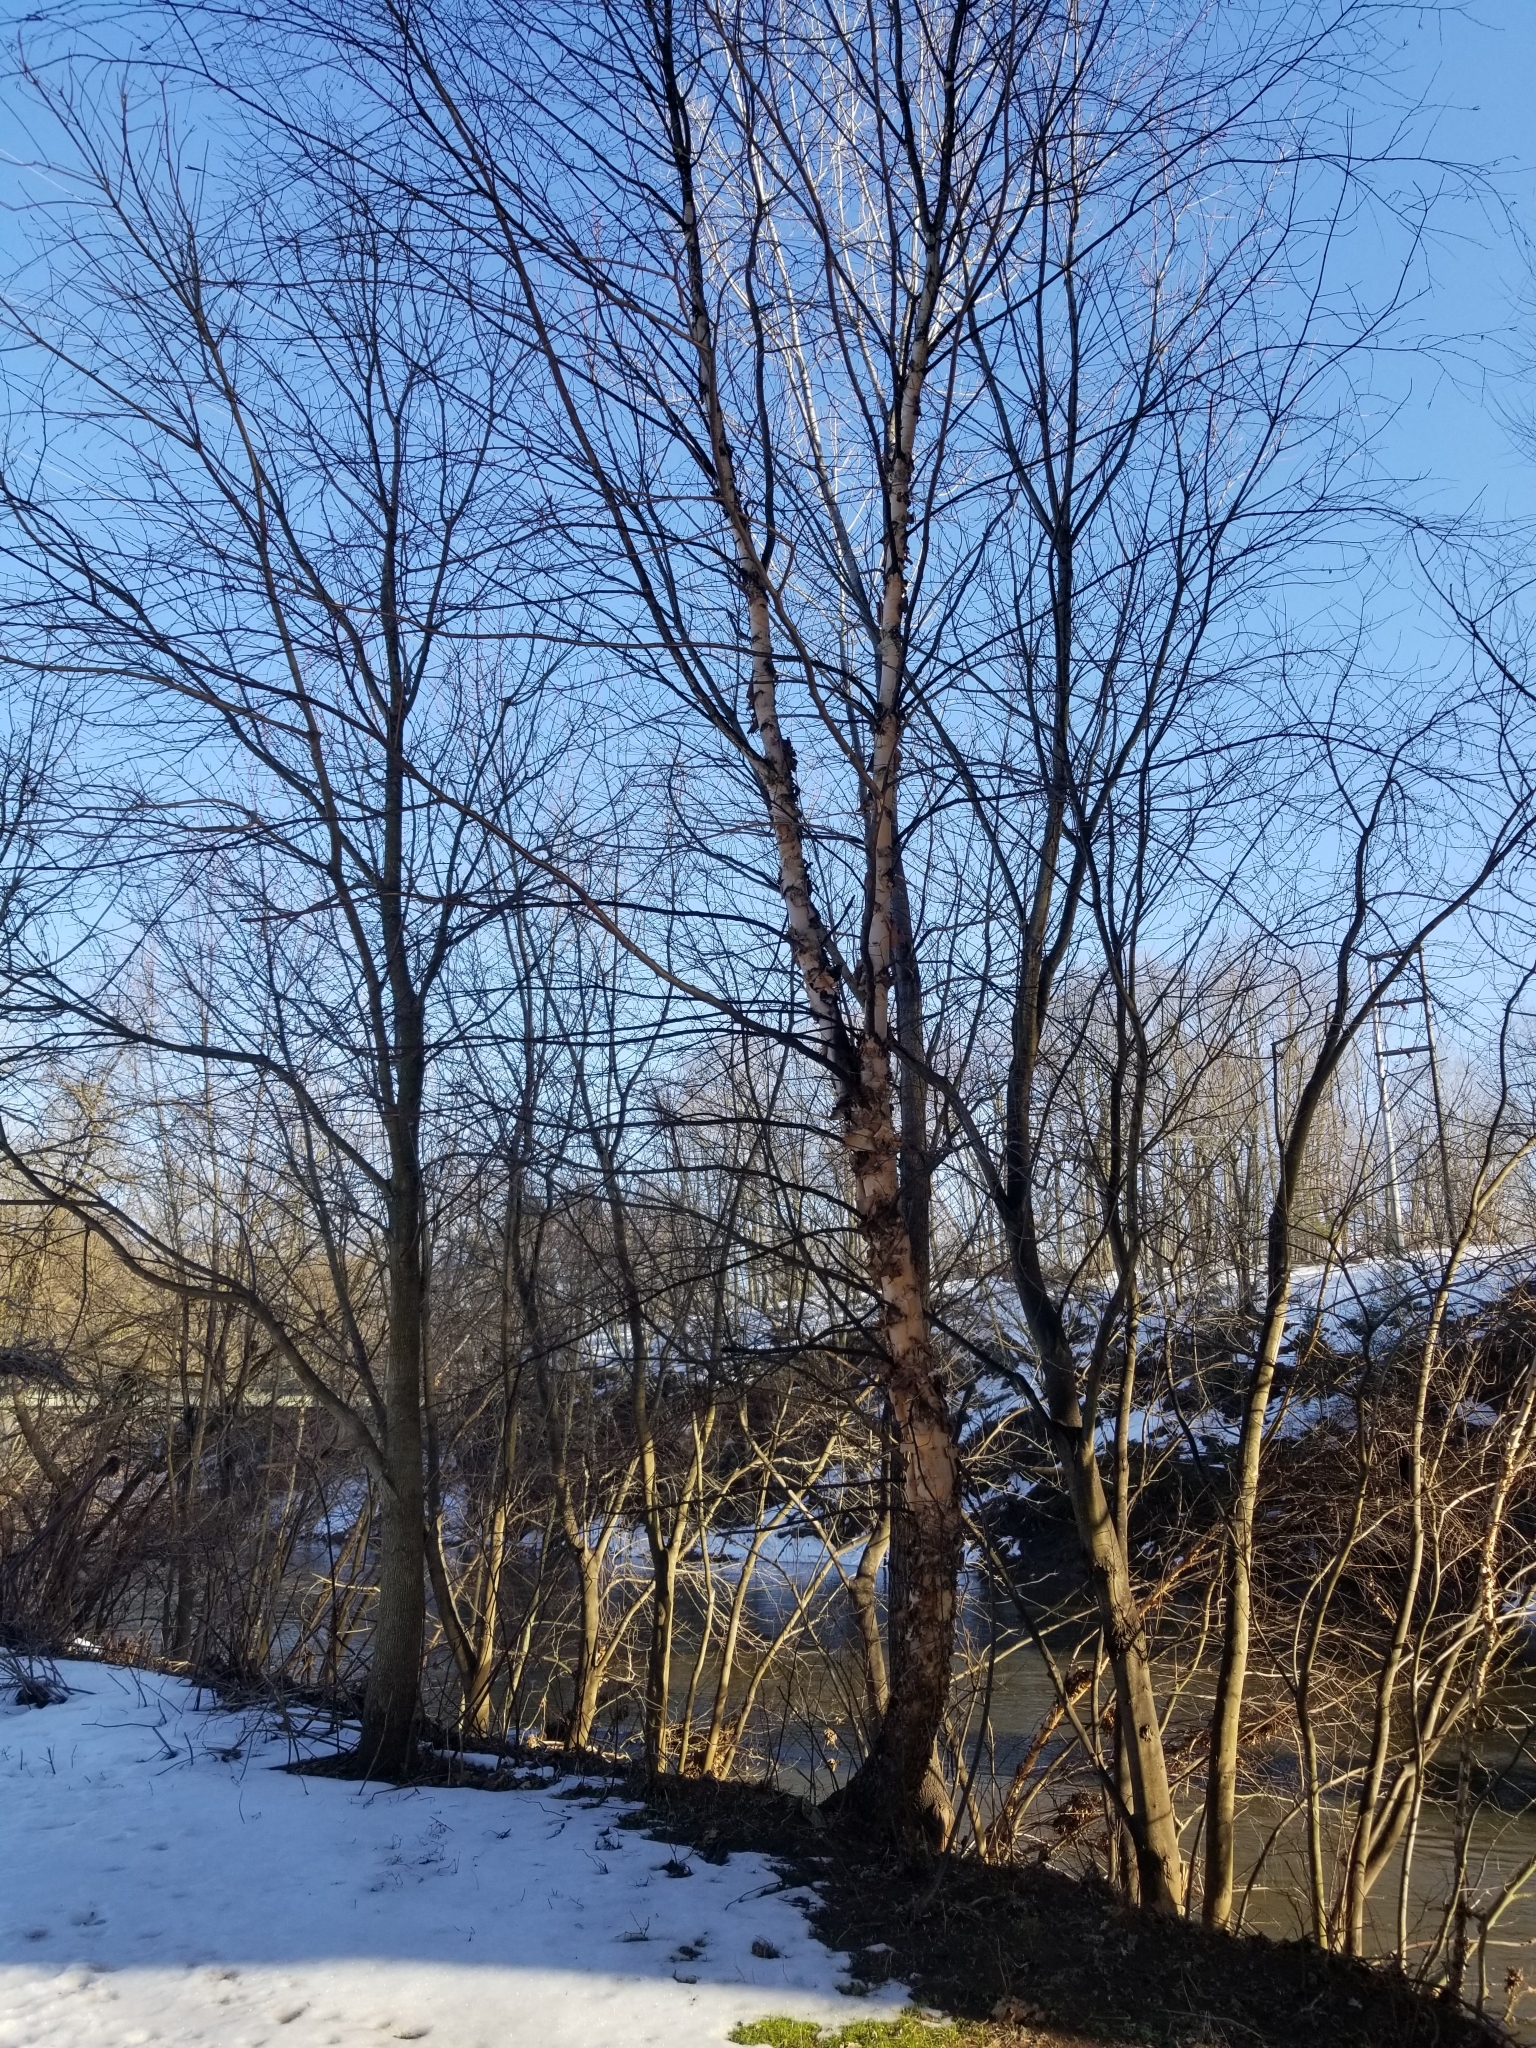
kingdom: Plantae
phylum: Tracheophyta
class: Magnoliopsida
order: Fagales
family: Betulaceae
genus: Betula
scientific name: Betula nigra
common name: Black birch
